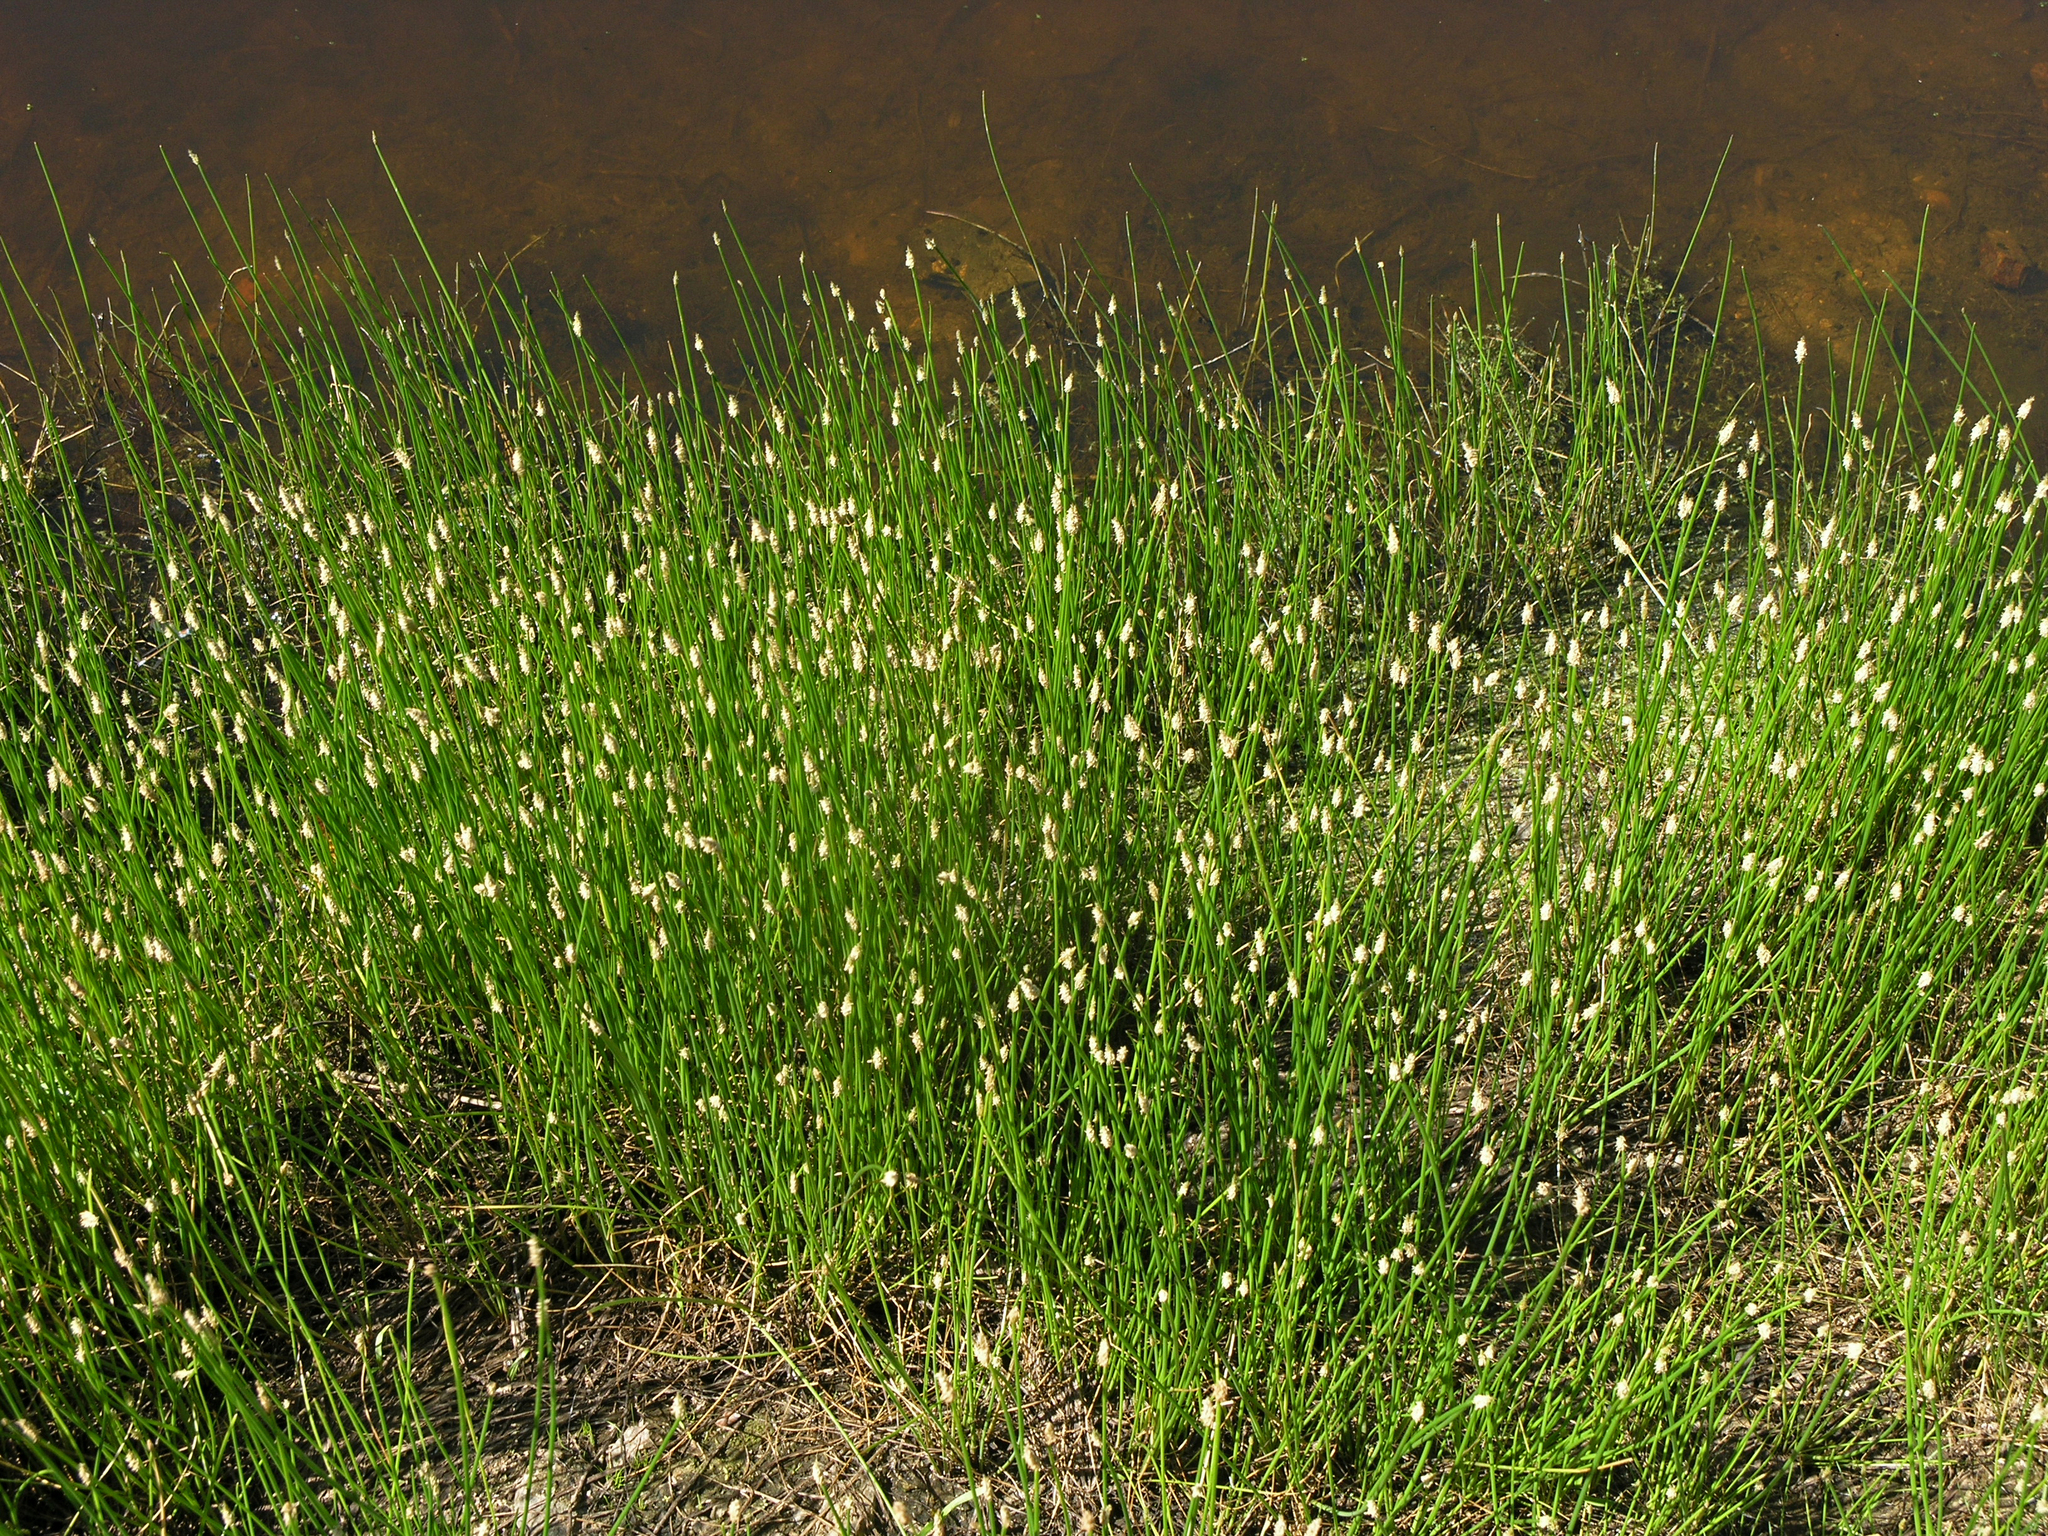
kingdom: Plantae
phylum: Tracheophyta
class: Liliopsida
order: Poales
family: Cyperaceae
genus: Eleocharis
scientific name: Eleocharis palustris
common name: Common spike-rush
